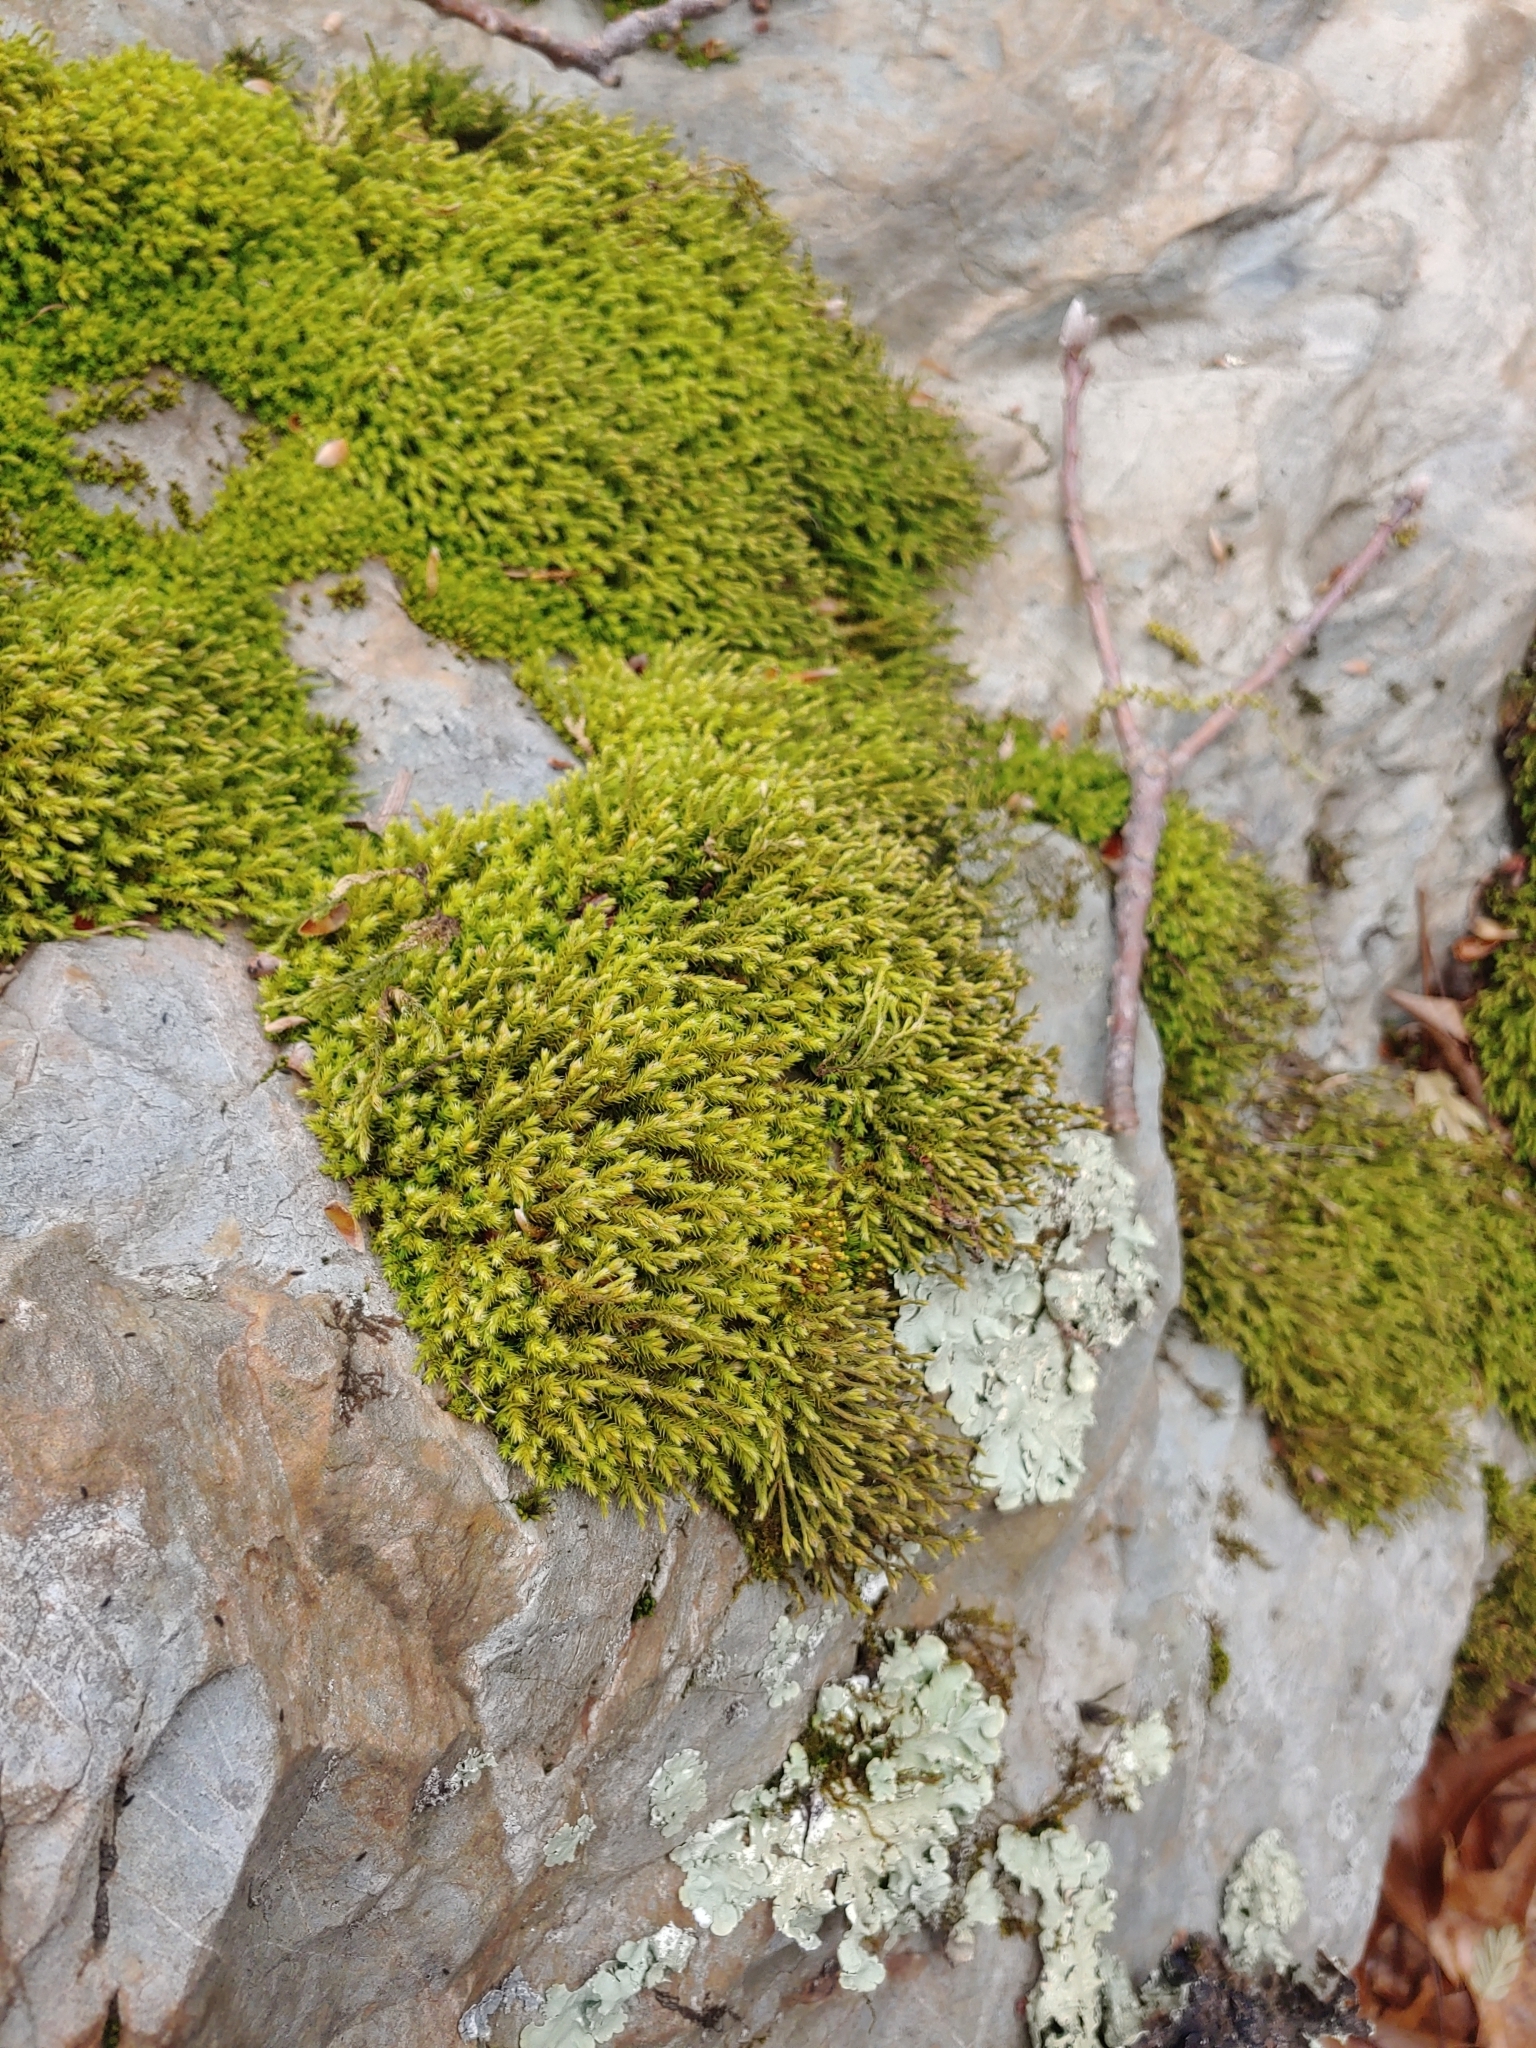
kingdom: Plantae
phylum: Bryophyta
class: Bryopsida
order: Hedwigiales
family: Hedwigiaceae
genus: Hedwigia
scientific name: Hedwigia ciliata
